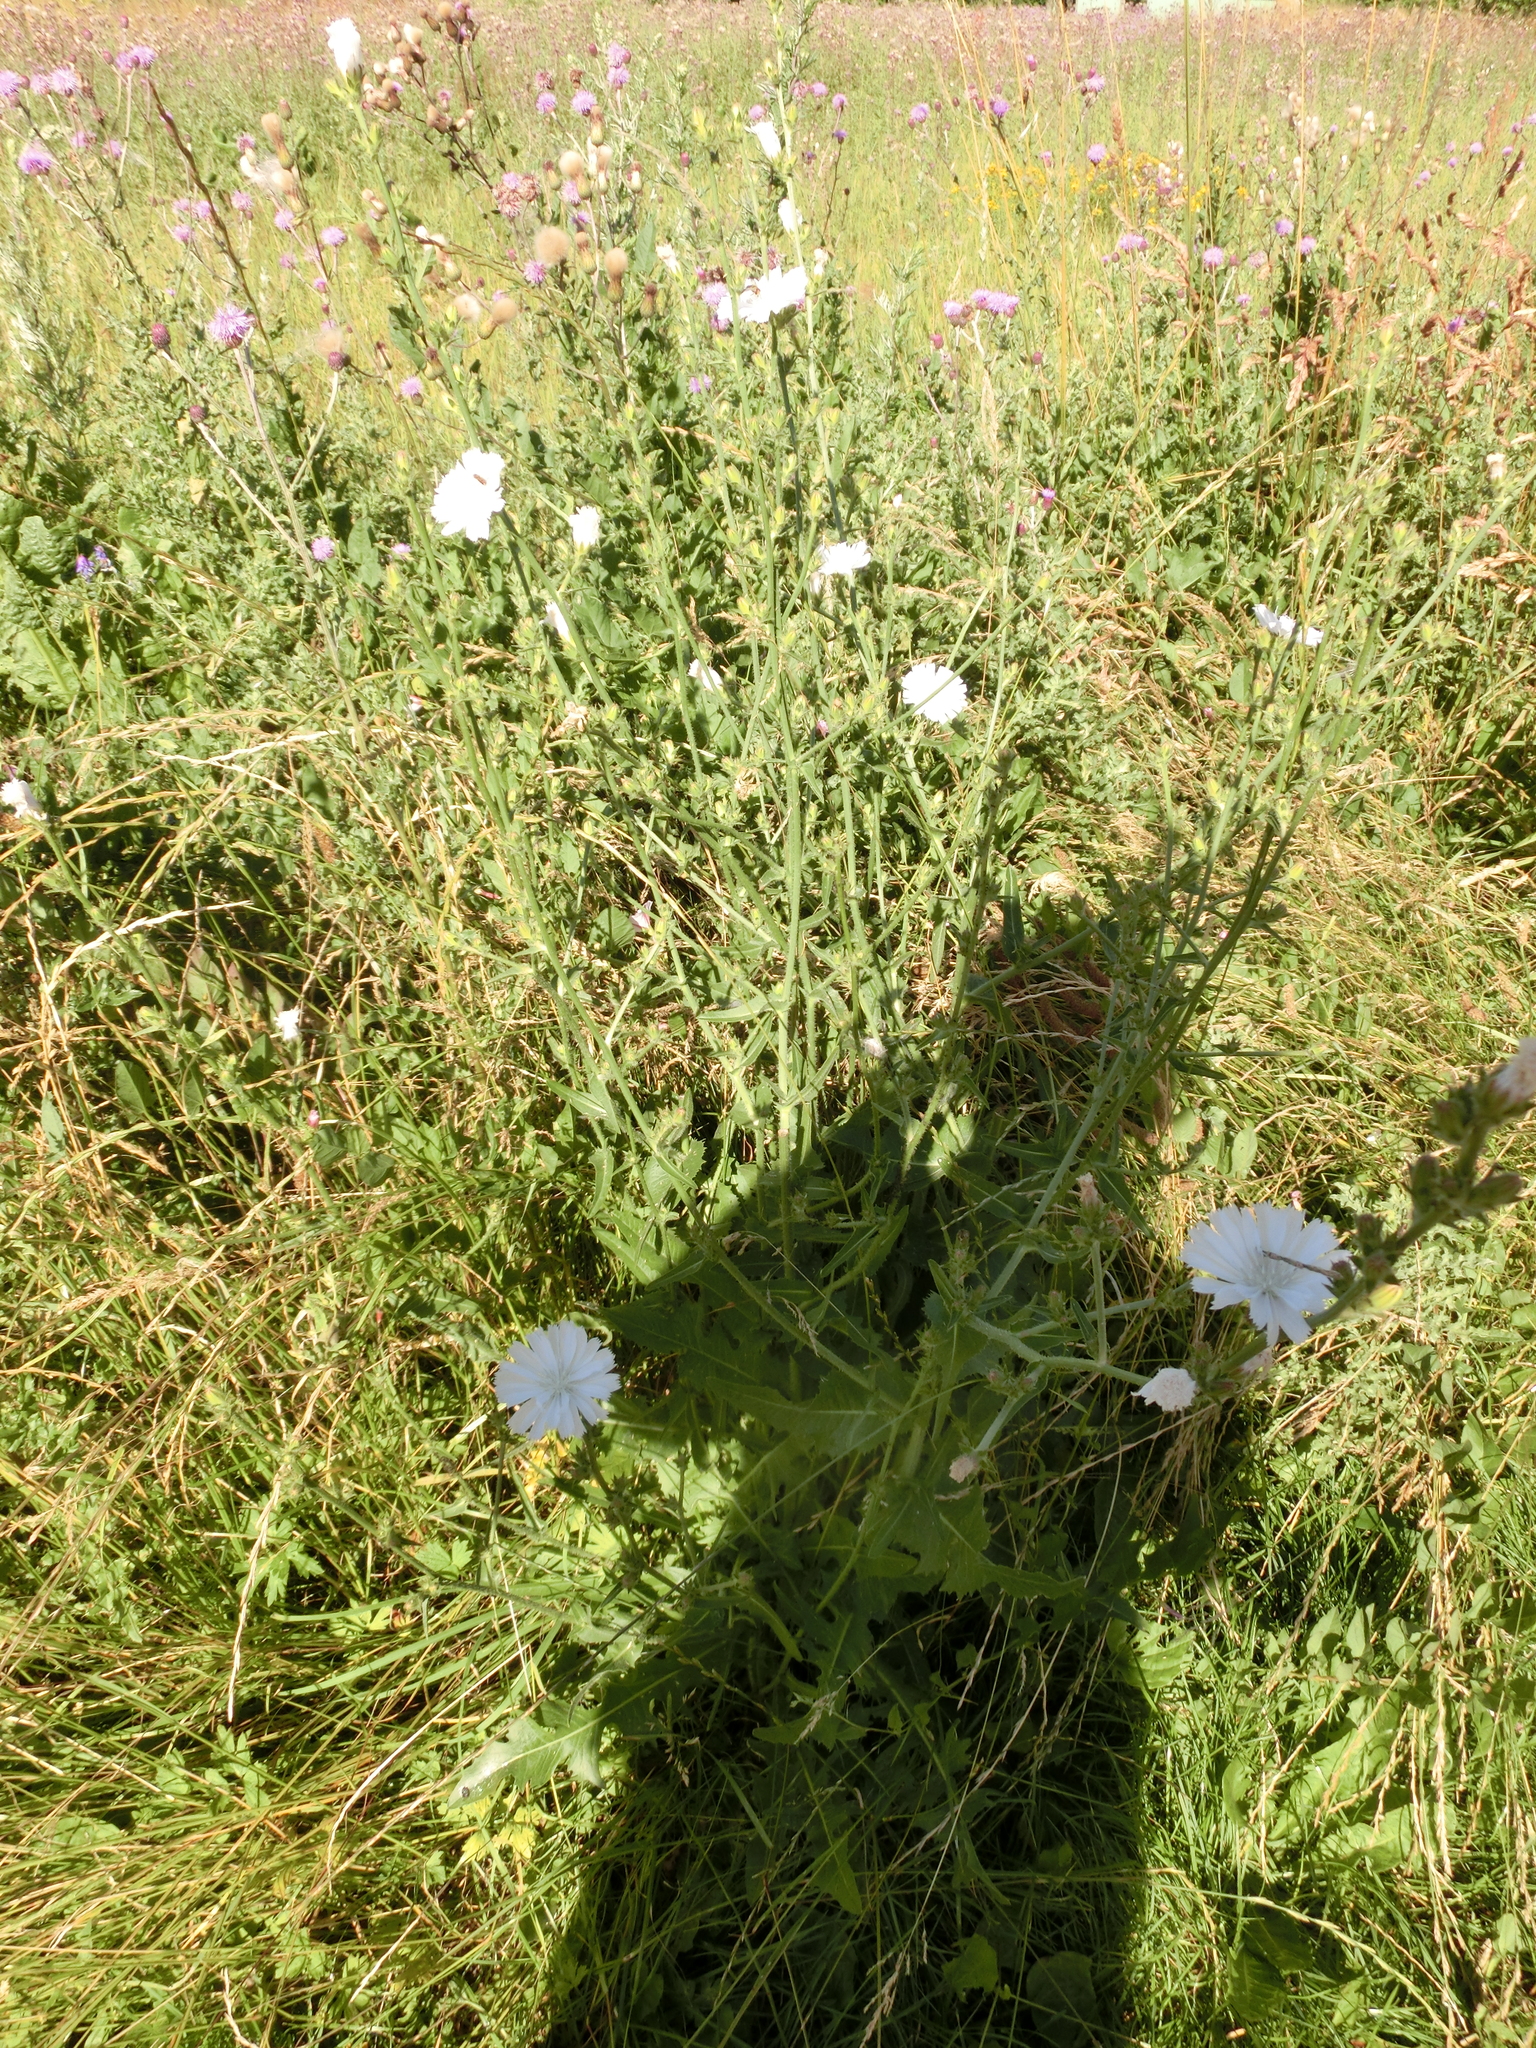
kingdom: Plantae
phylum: Tracheophyta
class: Magnoliopsida
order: Asterales
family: Asteraceae
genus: Cichorium
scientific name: Cichorium intybus
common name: Chicory
